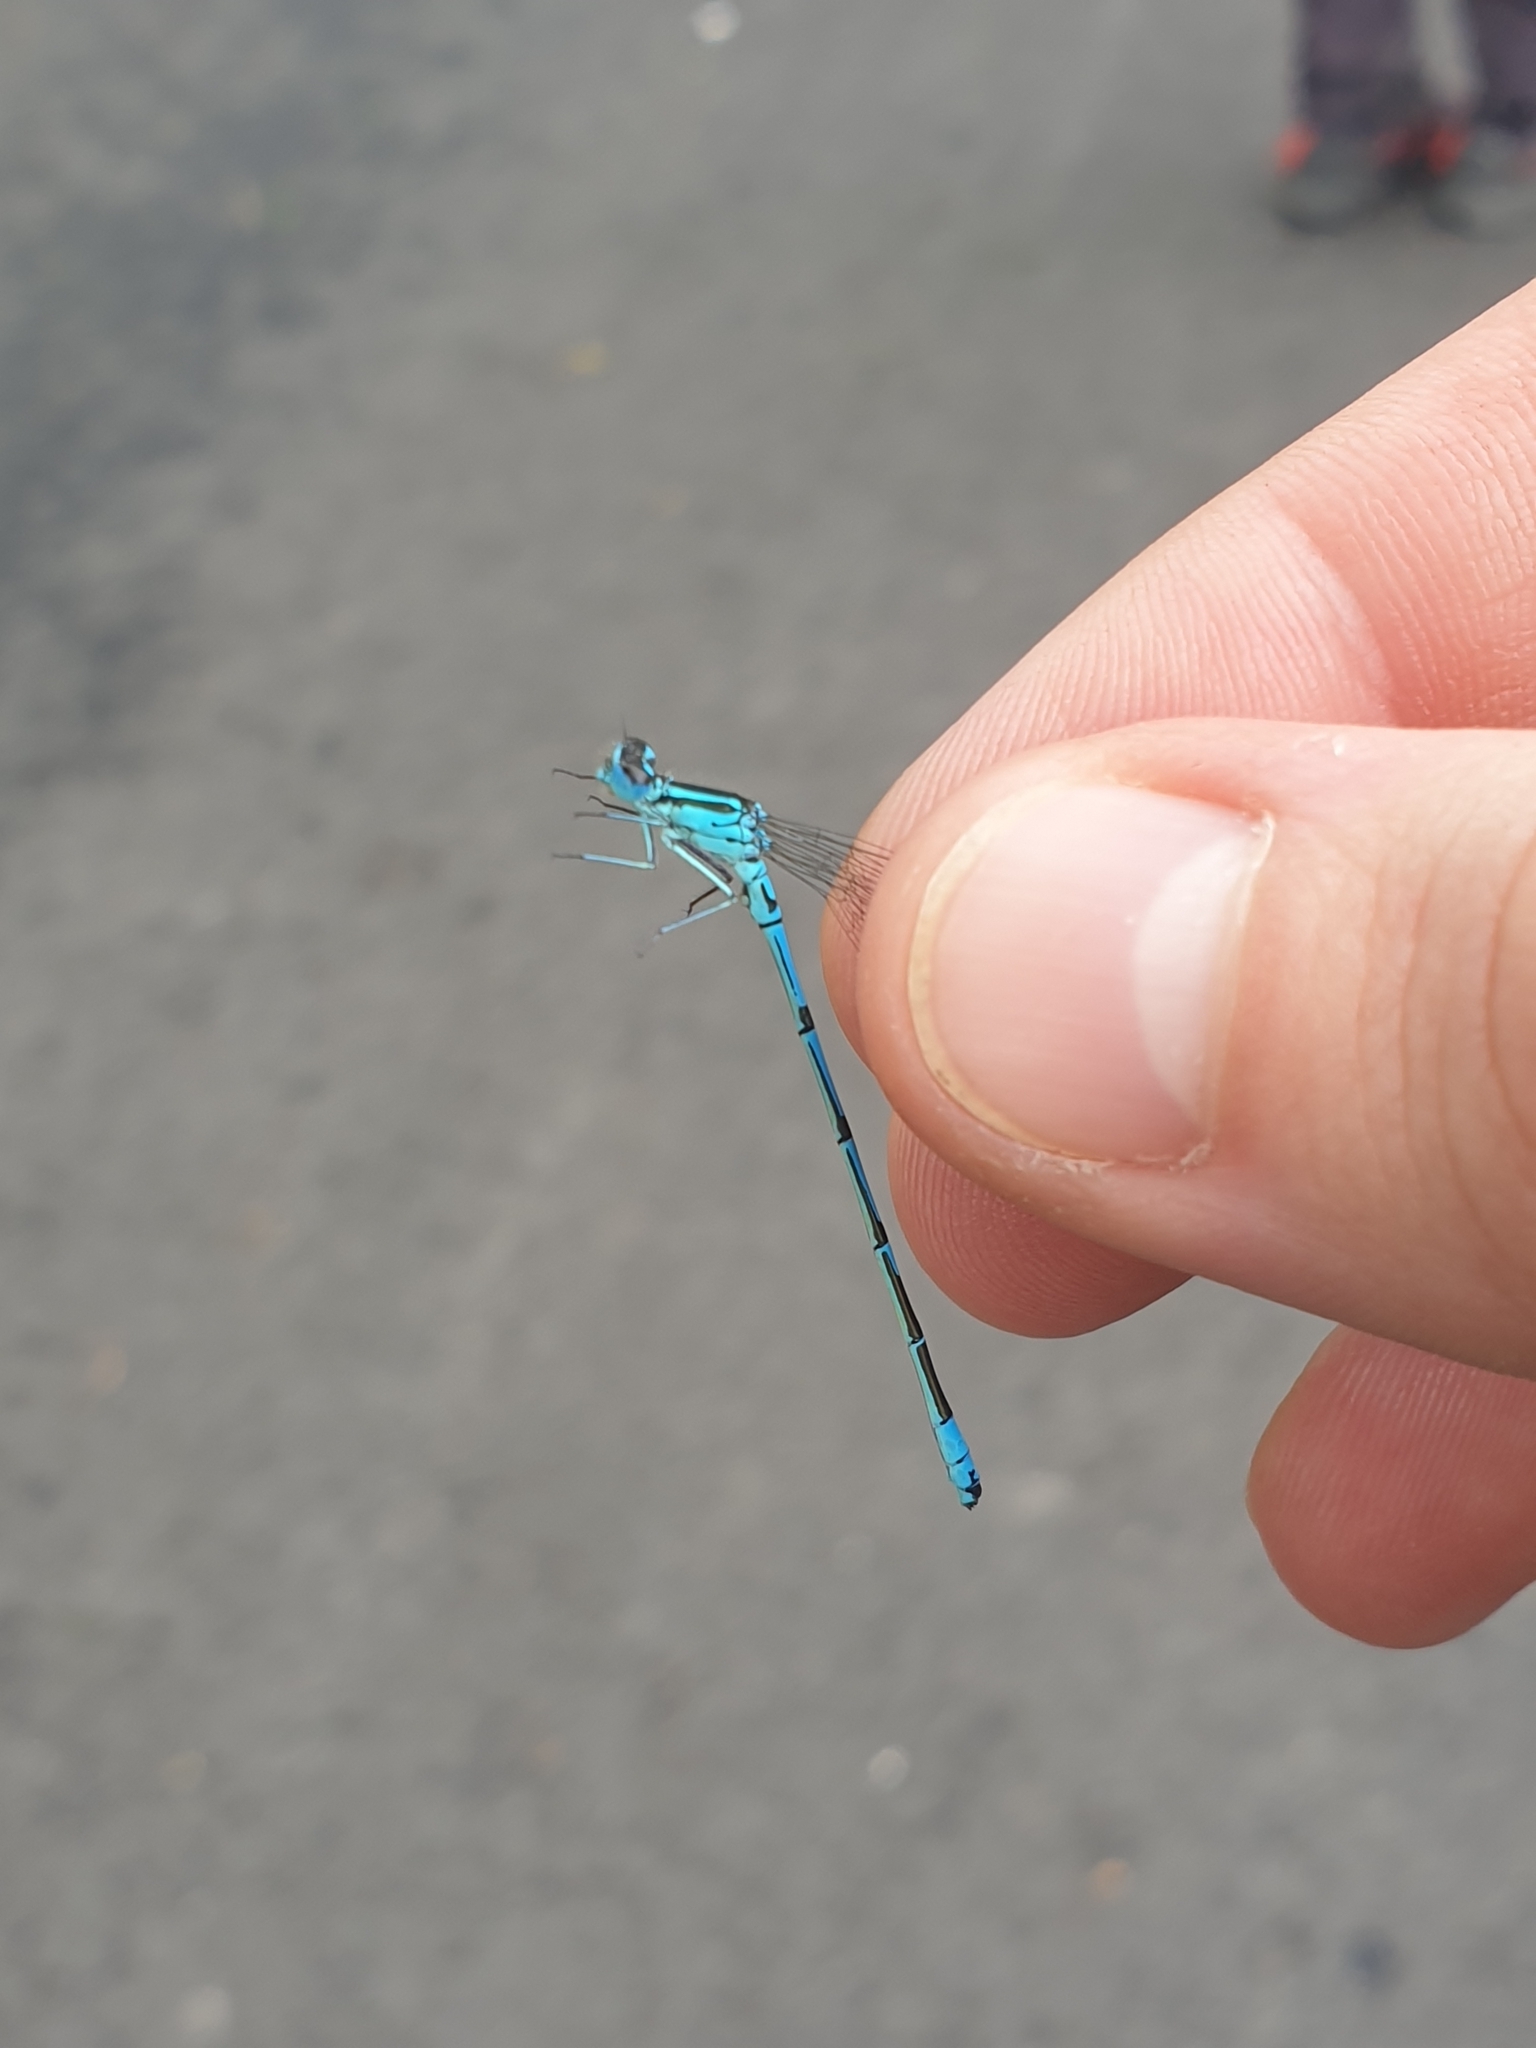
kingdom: Animalia
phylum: Arthropoda
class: Insecta
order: Odonata
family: Coenagrionidae
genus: Coenagrion
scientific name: Coenagrion puella
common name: Azure damselfly
